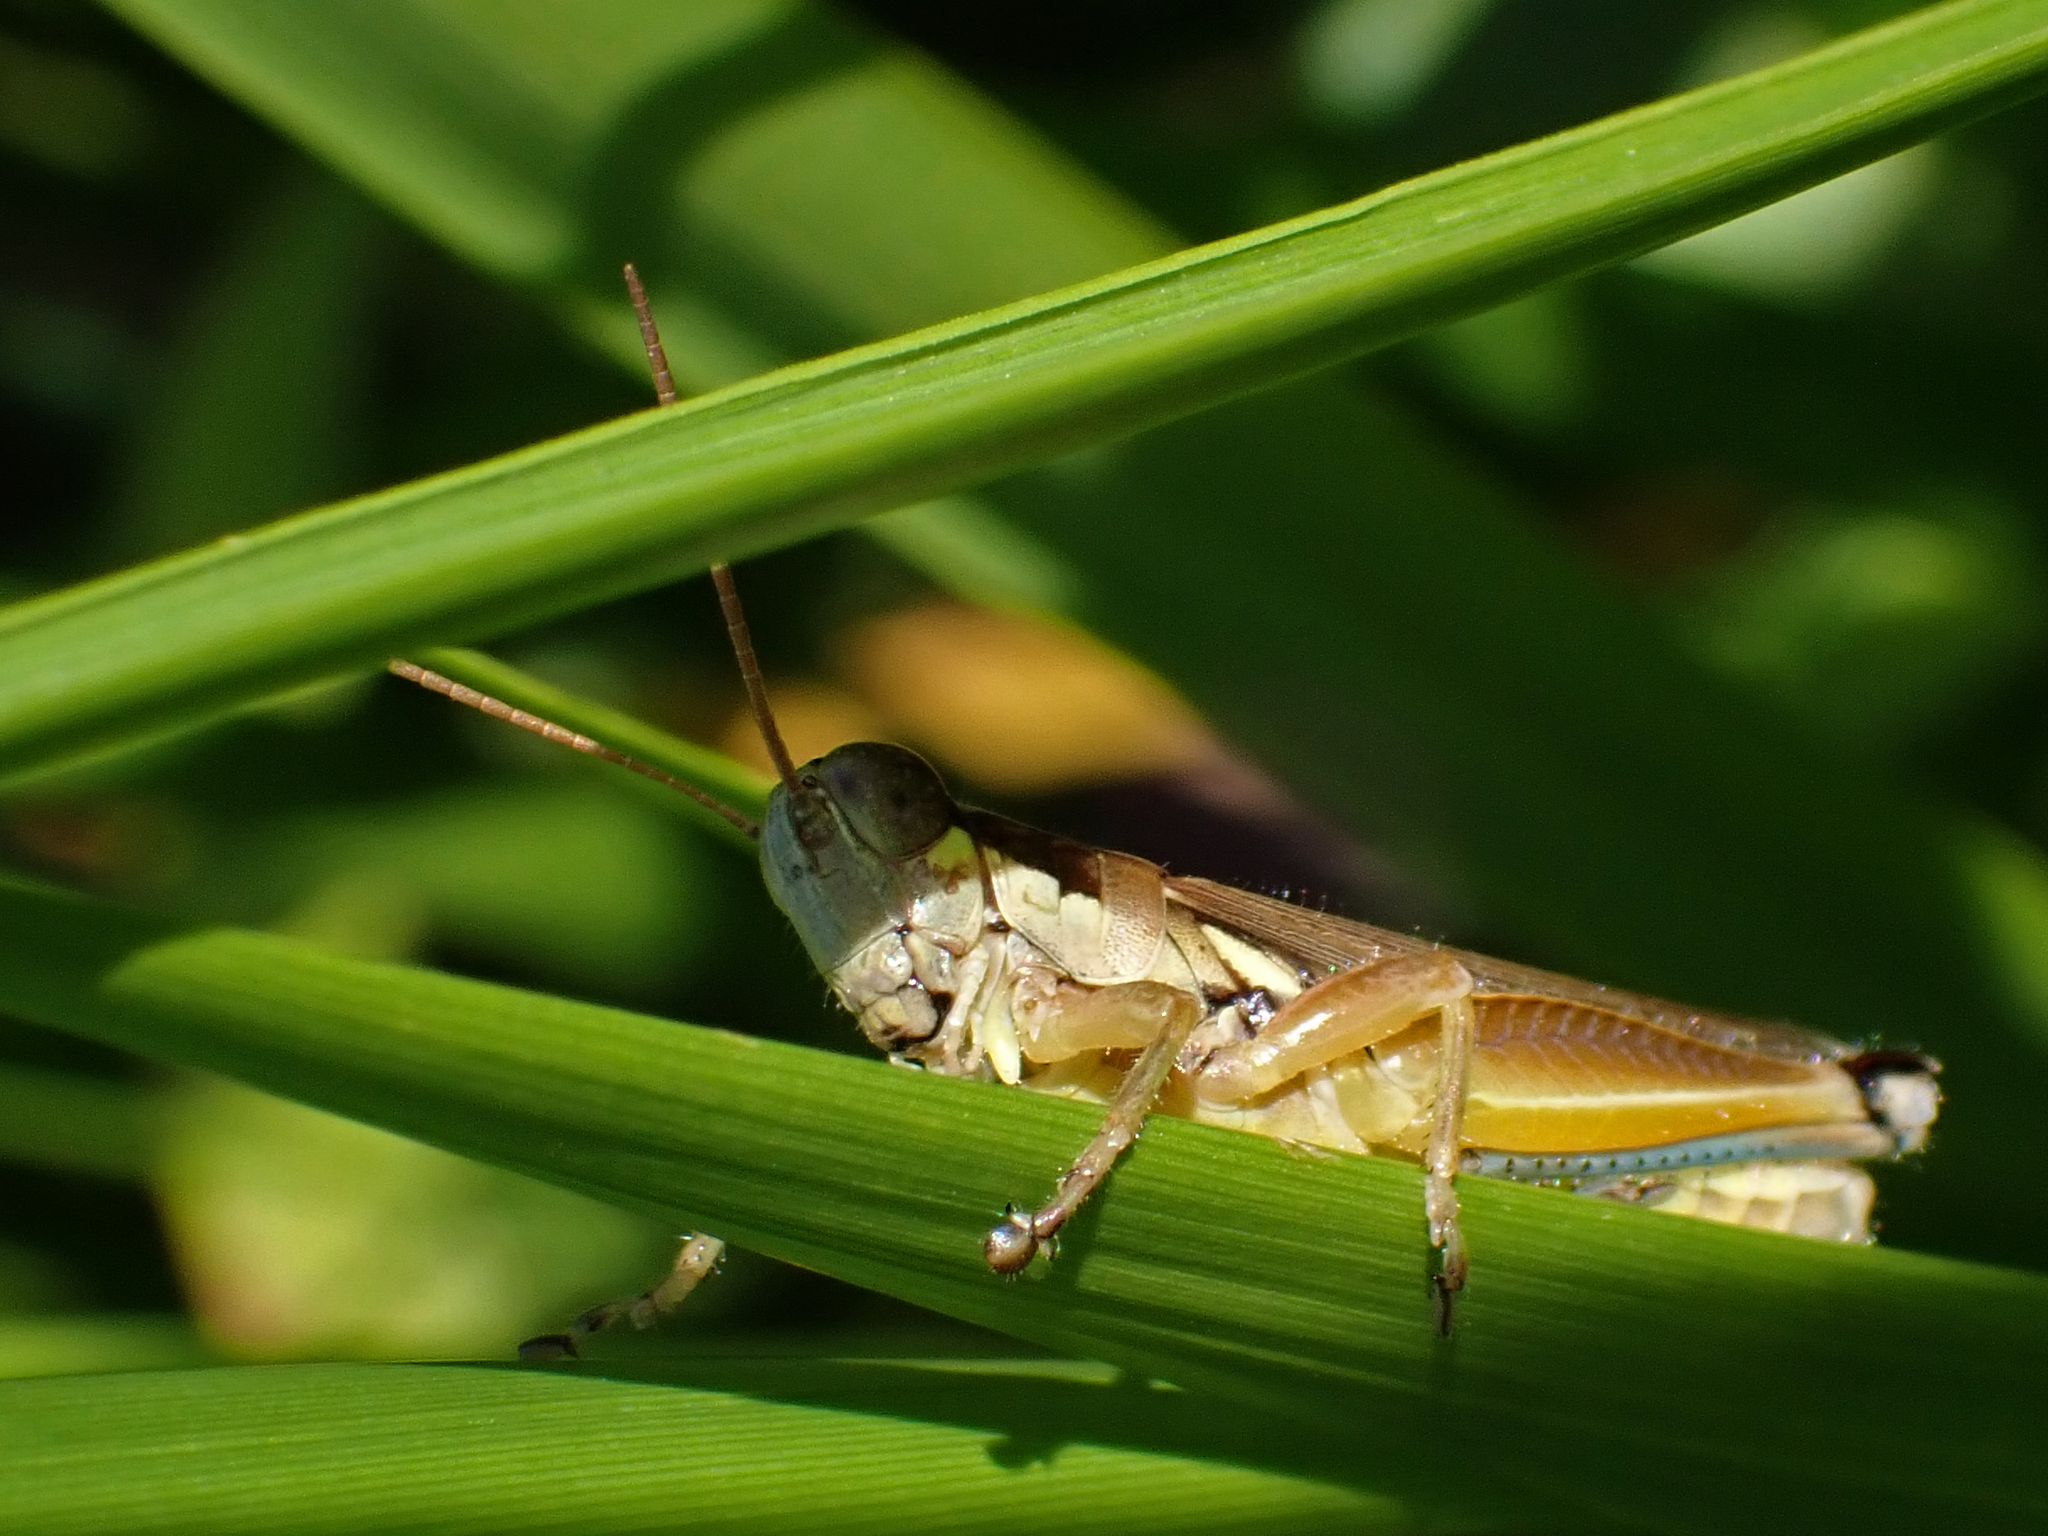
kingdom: Animalia
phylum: Arthropoda
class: Insecta
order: Orthoptera
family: Acrididae
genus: Paroxya
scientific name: Paroxya atlantica
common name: Atlantic grasshopper
